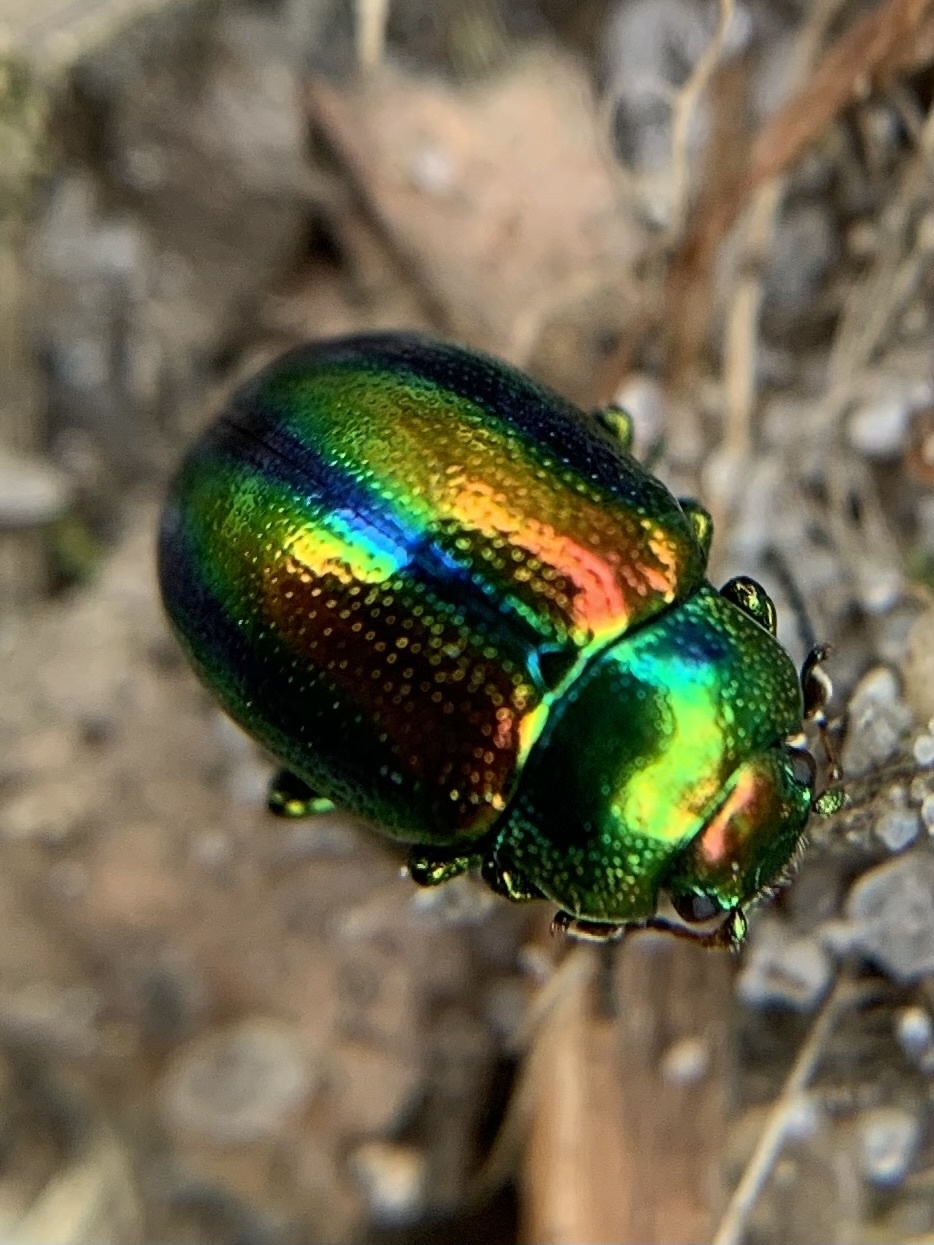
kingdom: Animalia
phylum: Arthropoda
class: Insecta
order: Coleoptera
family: Chrysomelidae
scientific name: Chrysomelidae
